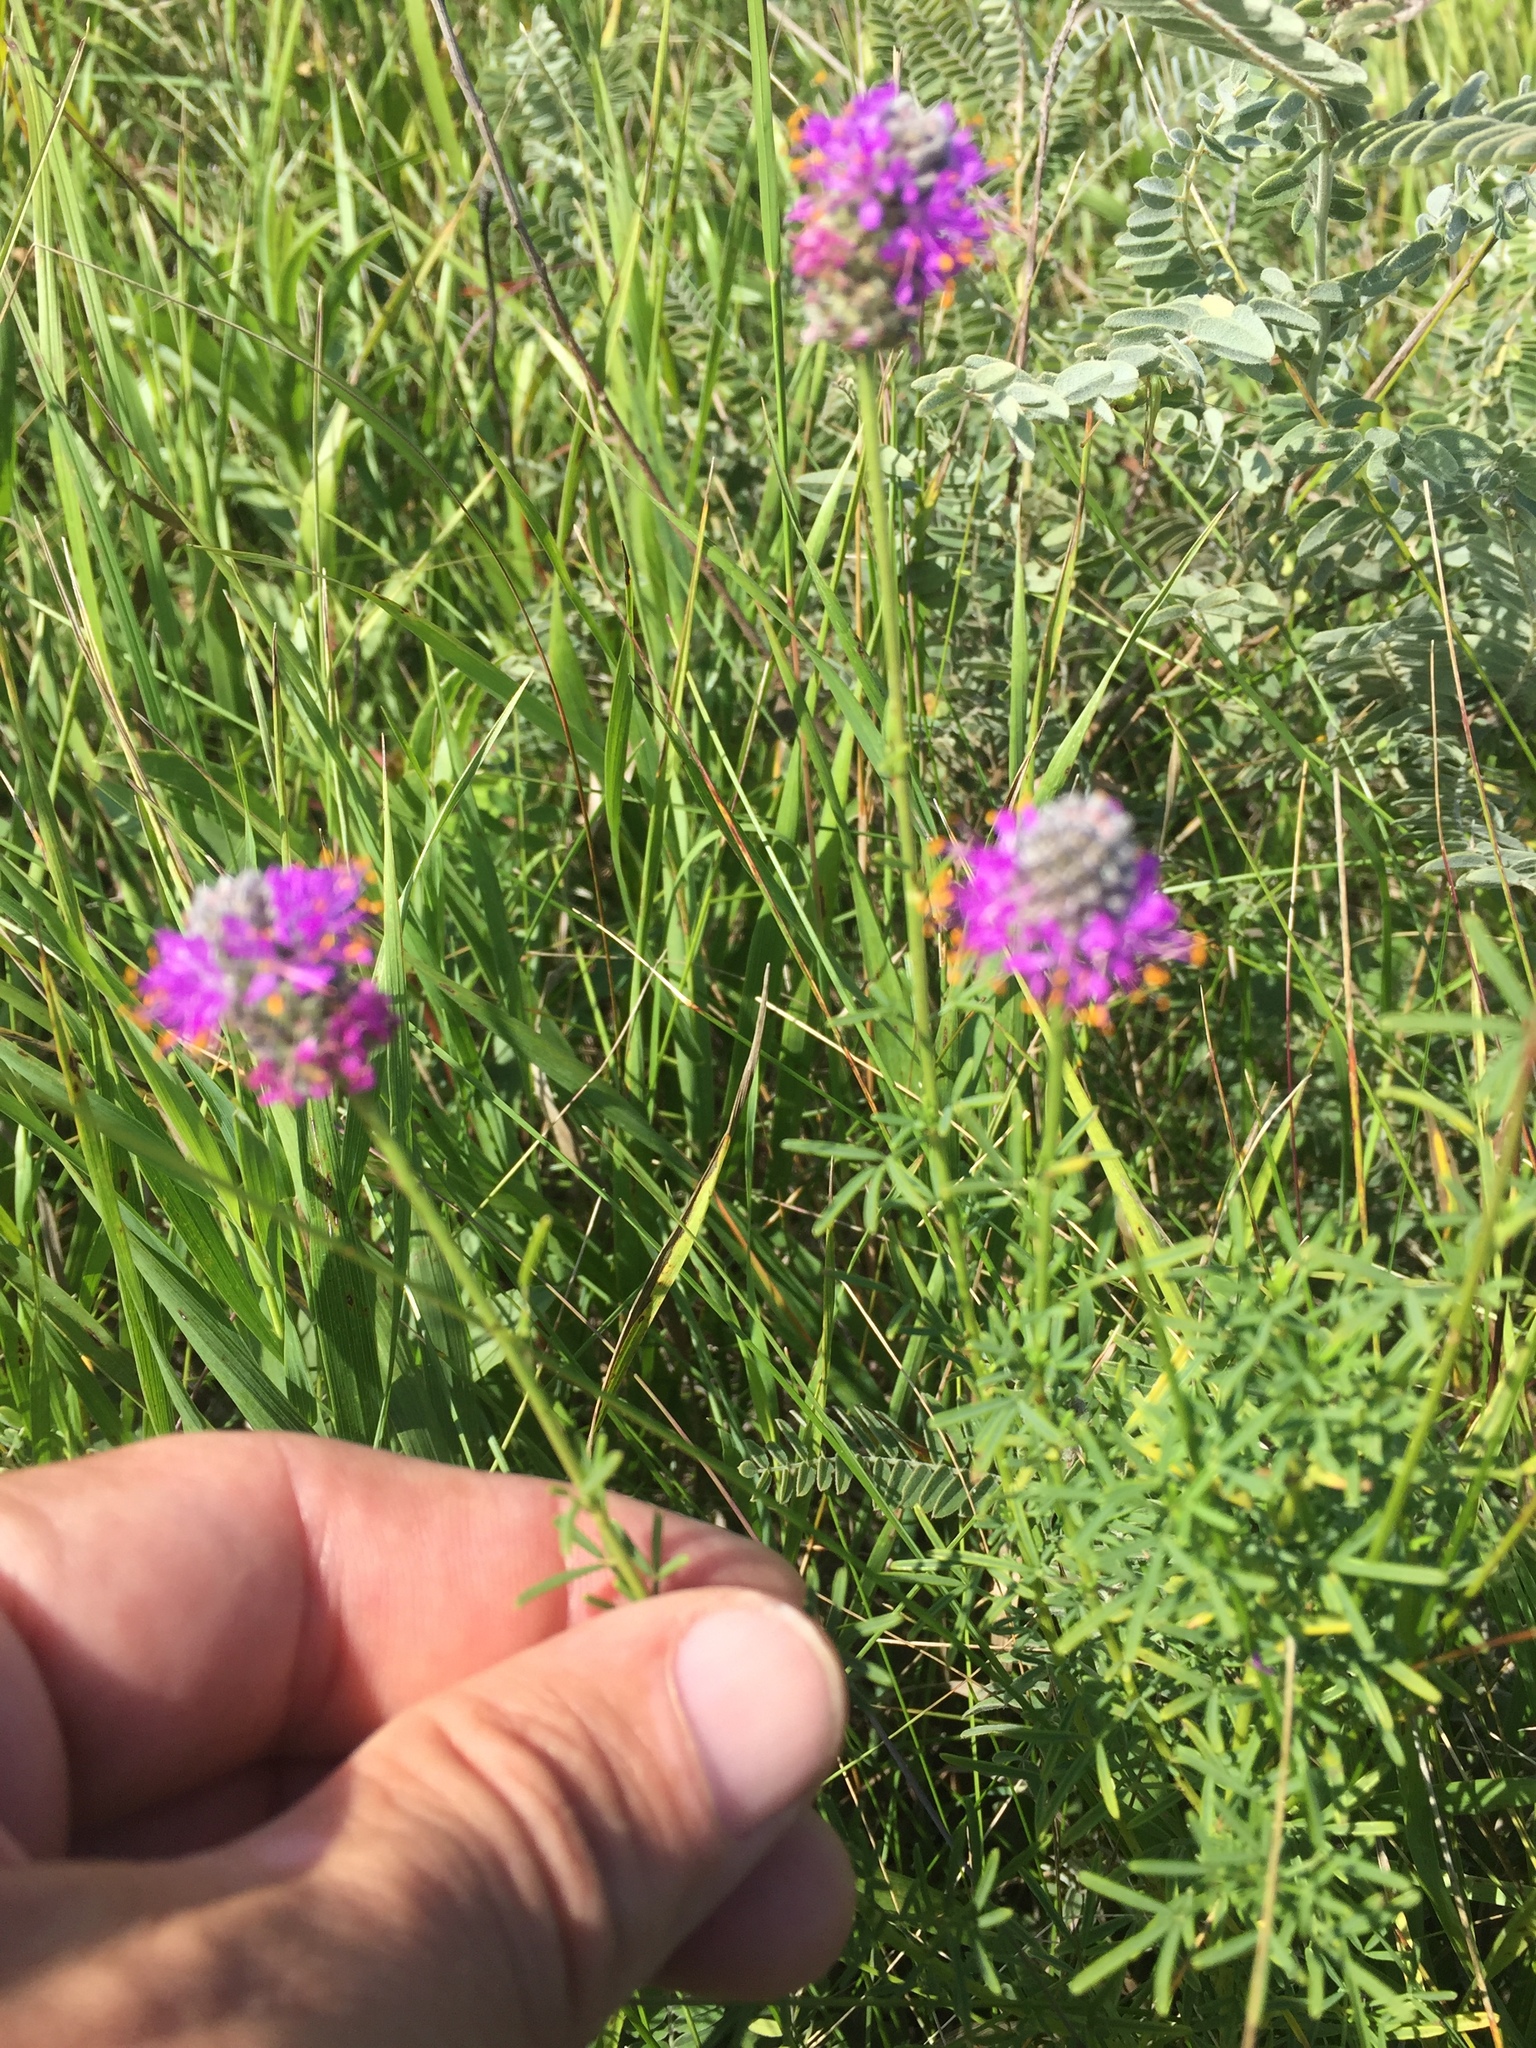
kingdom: Plantae
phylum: Tracheophyta
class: Magnoliopsida
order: Fabales
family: Fabaceae
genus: Dalea
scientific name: Dalea purpurea
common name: Purple prairie-clover
